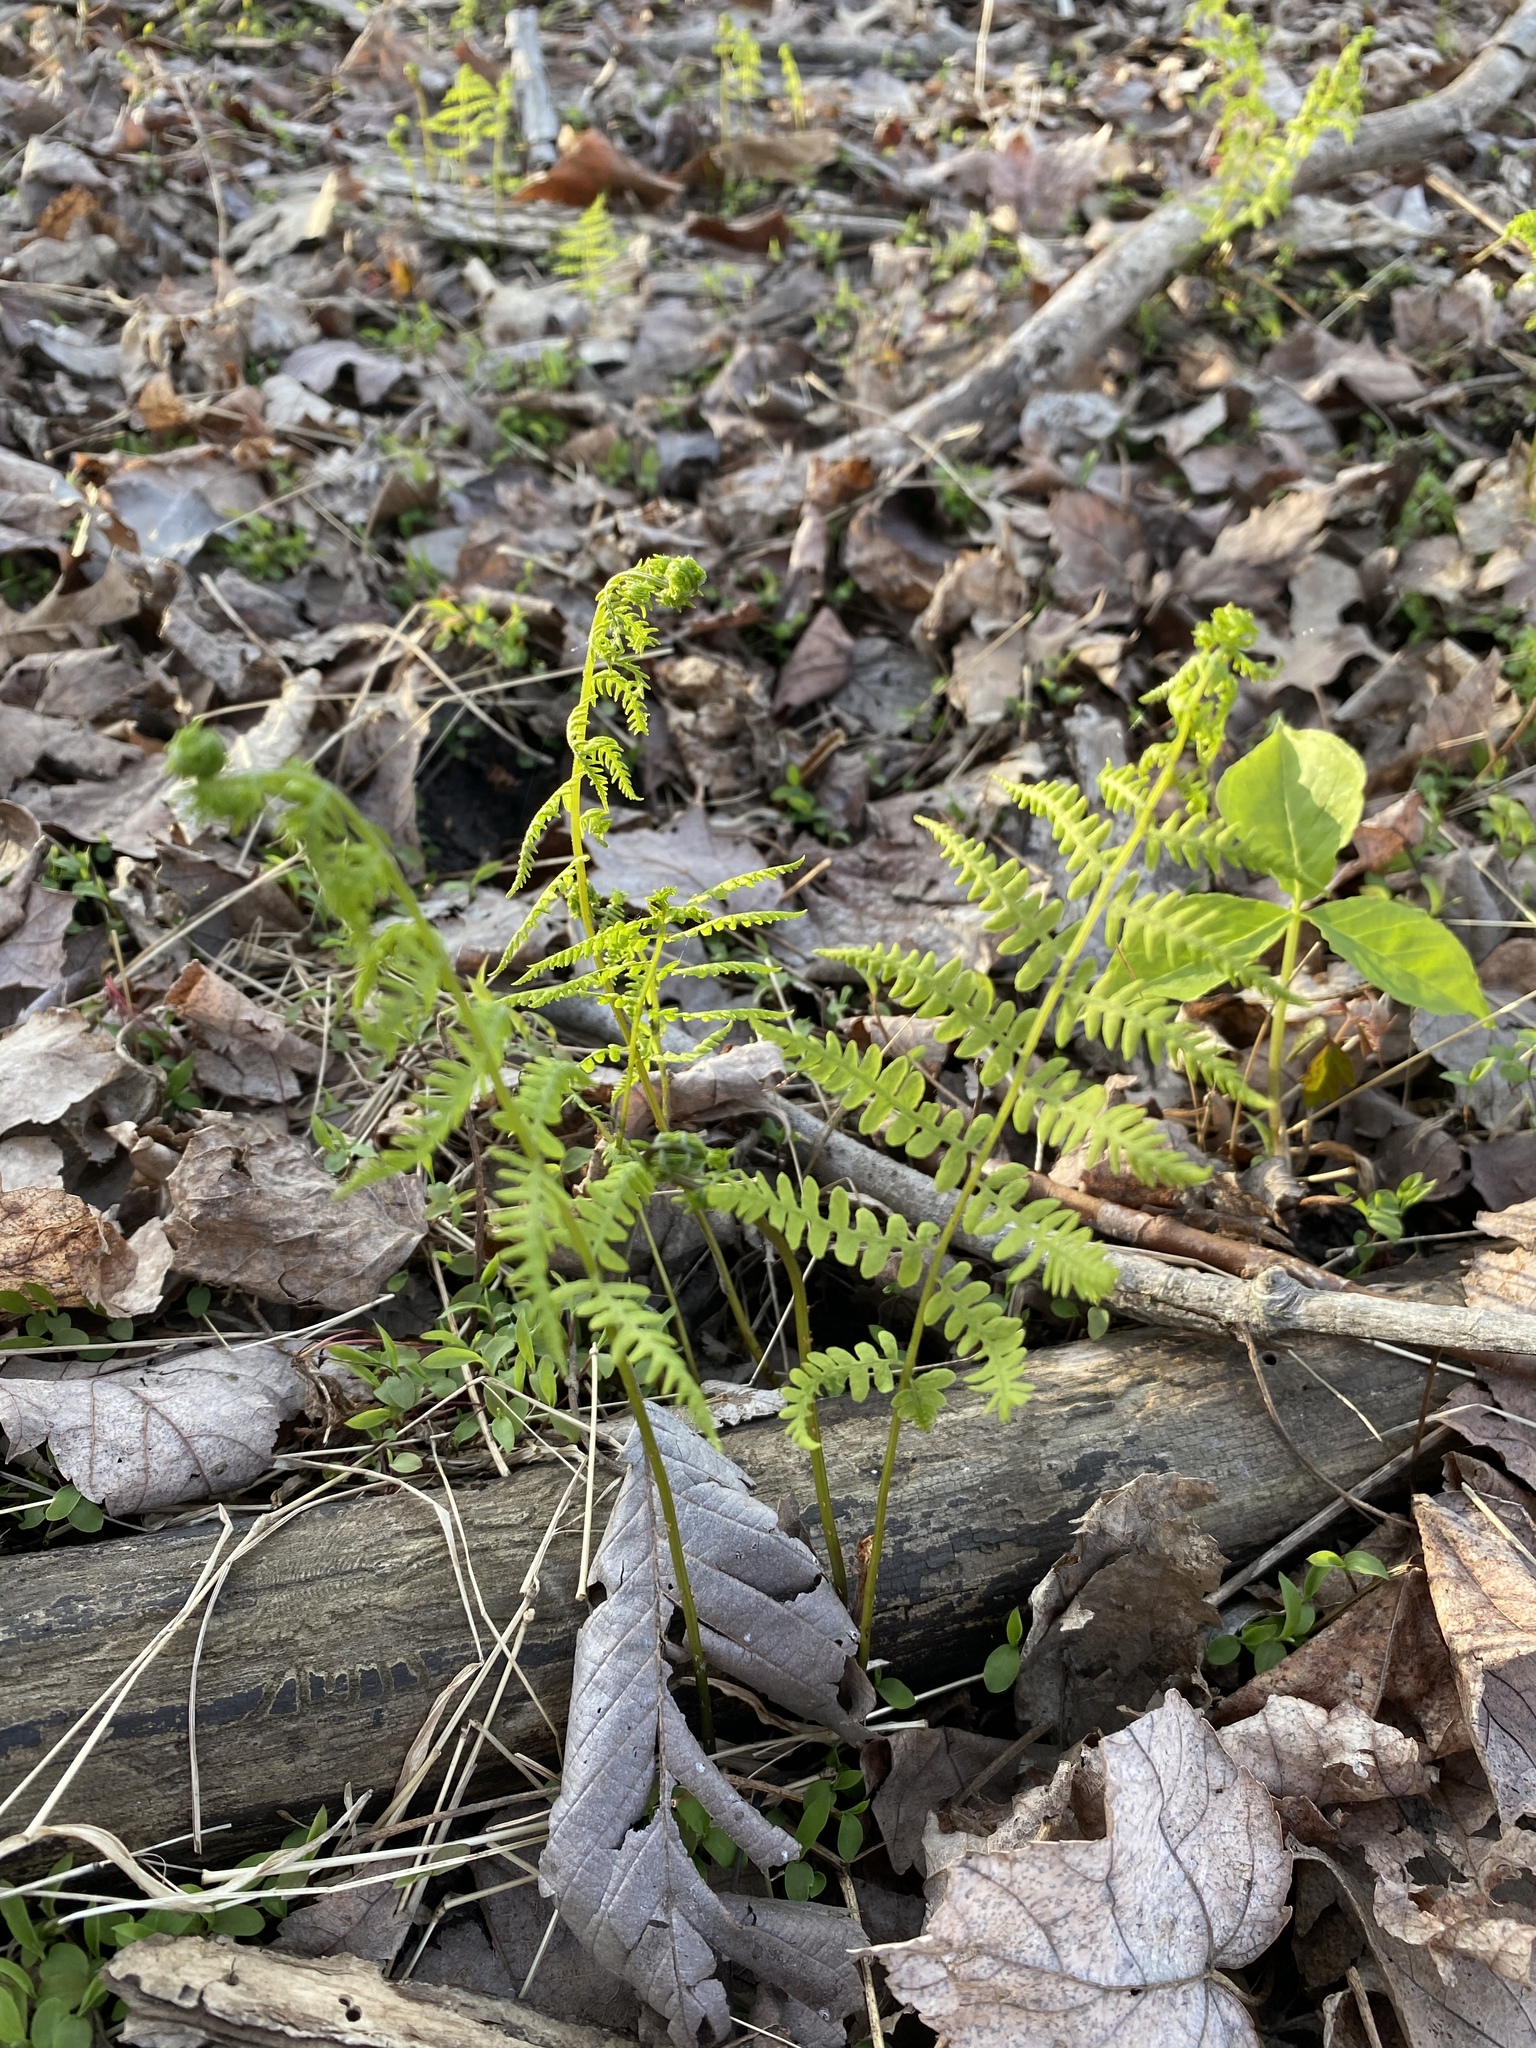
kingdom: Plantae
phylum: Tracheophyta
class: Polypodiopsida
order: Polypodiales
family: Thelypteridaceae
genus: Thelypteris
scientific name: Thelypteris palustris
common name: Marsh fern
